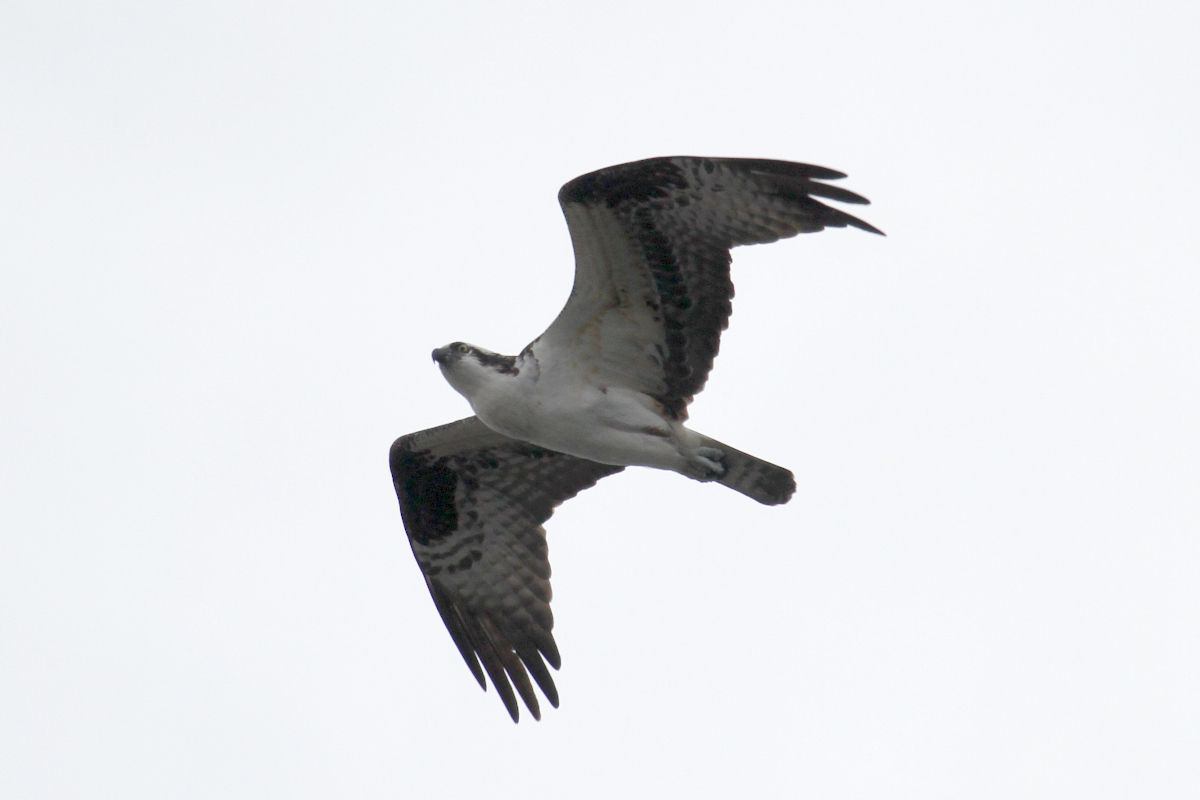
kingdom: Animalia
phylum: Chordata
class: Aves
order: Accipitriformes
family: Pandionidae
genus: Pandion
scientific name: Pandion haliaetus
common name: Osprey
